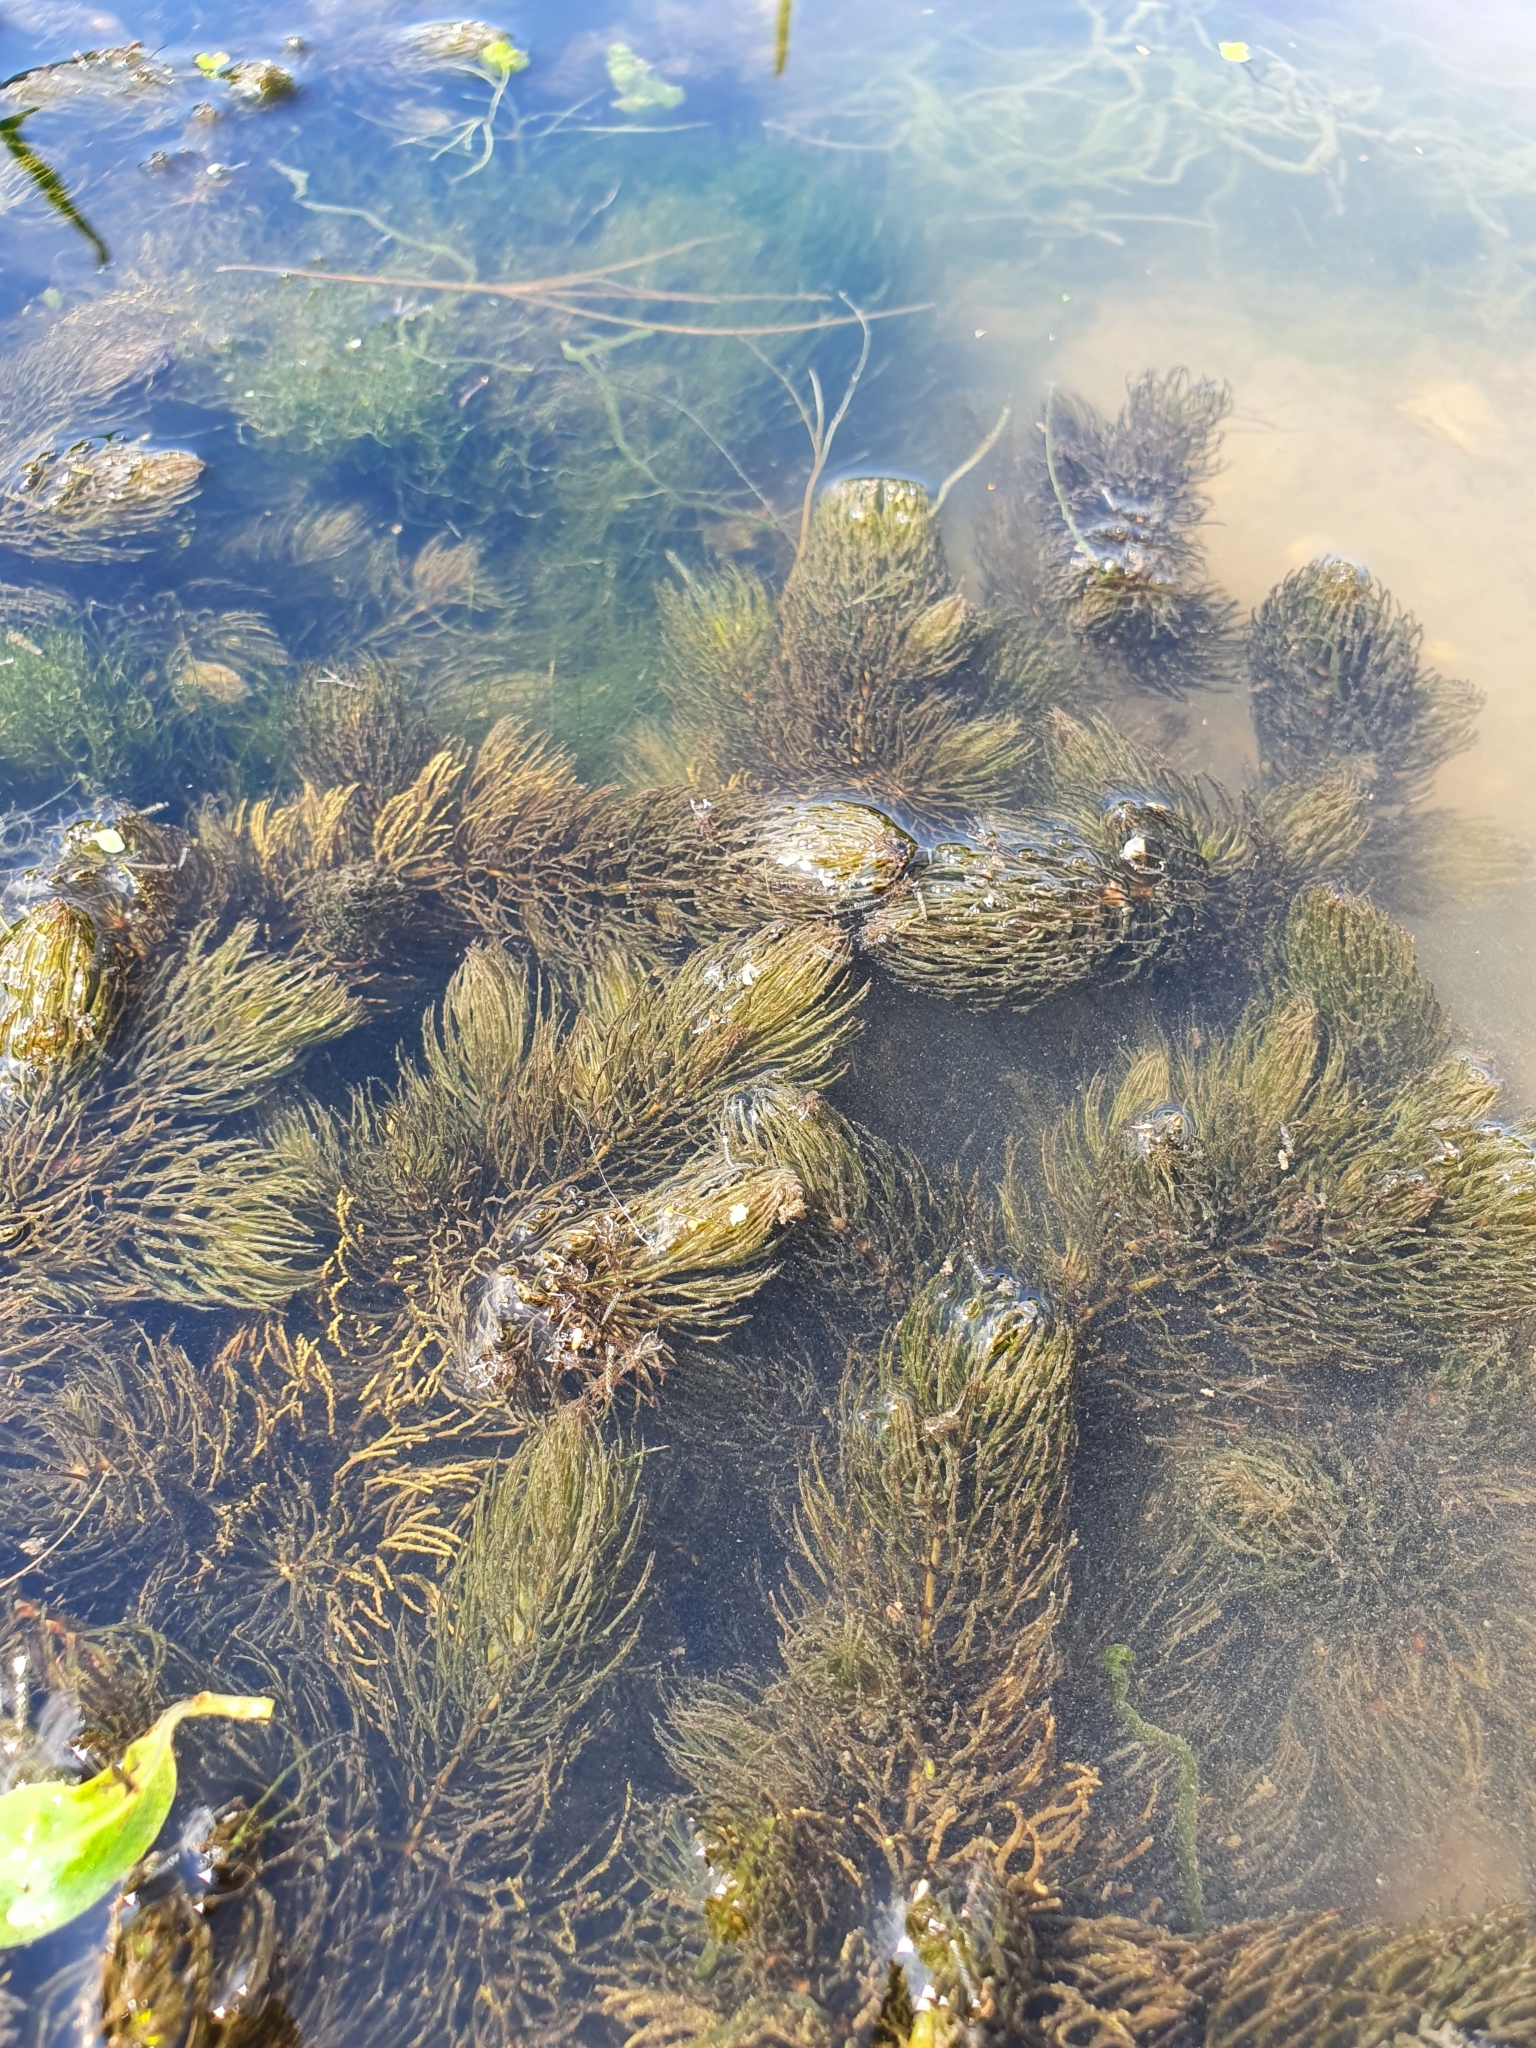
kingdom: Plantae
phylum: Tracheophyta
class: Magnoliopsida
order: Ceratophyllales
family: Ceratophyllaceae
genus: Ceratophyllum
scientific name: Ceratophyllum demersum
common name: Rigid hornwort
